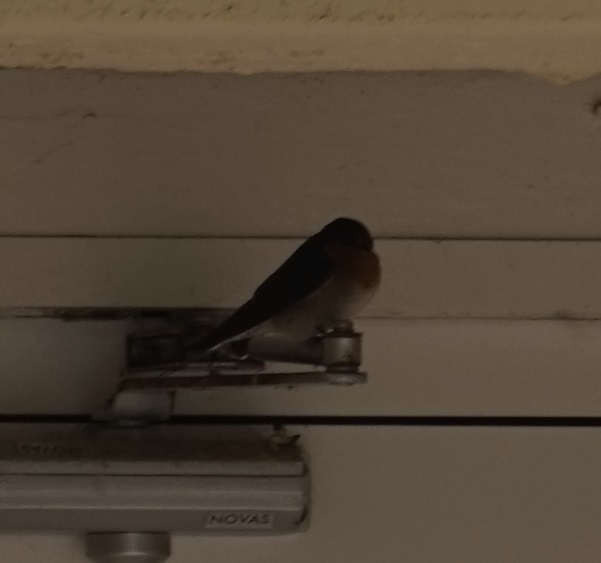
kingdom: Animalia
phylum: Chordata
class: Aves
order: Passeriformes
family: Hirundinidae
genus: Hirundo
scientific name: Hirundo neoxena
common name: Welcome swallow
